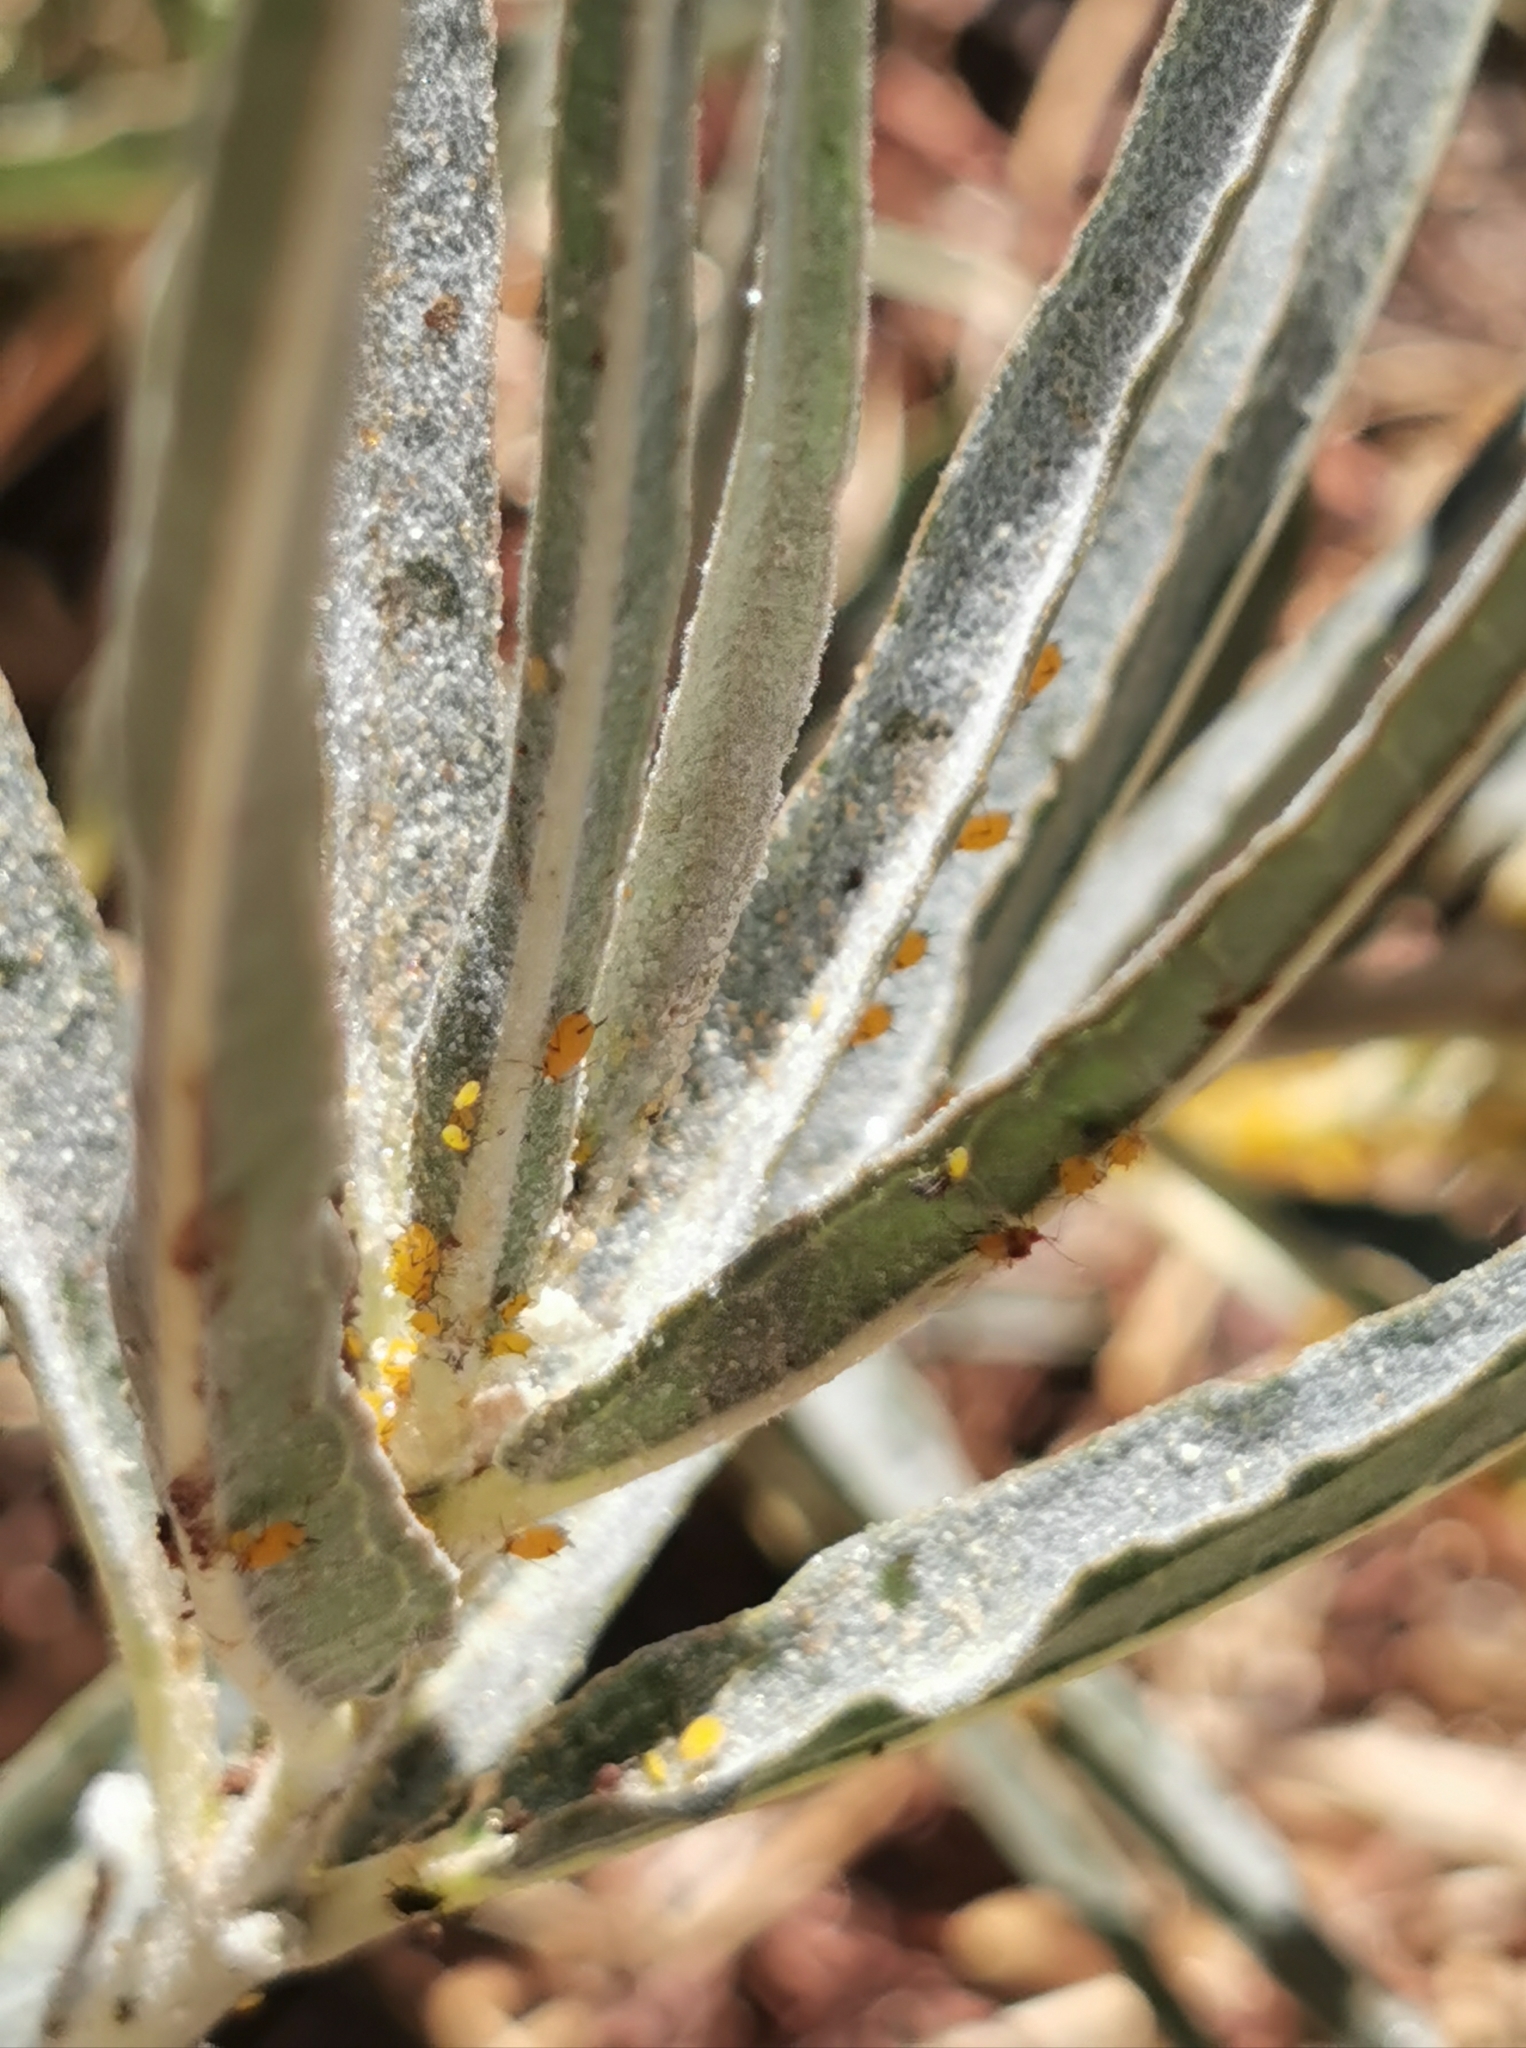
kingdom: Animalia
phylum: Arthropoda
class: Insecta
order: Hemiptera
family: Aphididae
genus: Aphis
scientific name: Aphis nerii
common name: Oleander aphid
